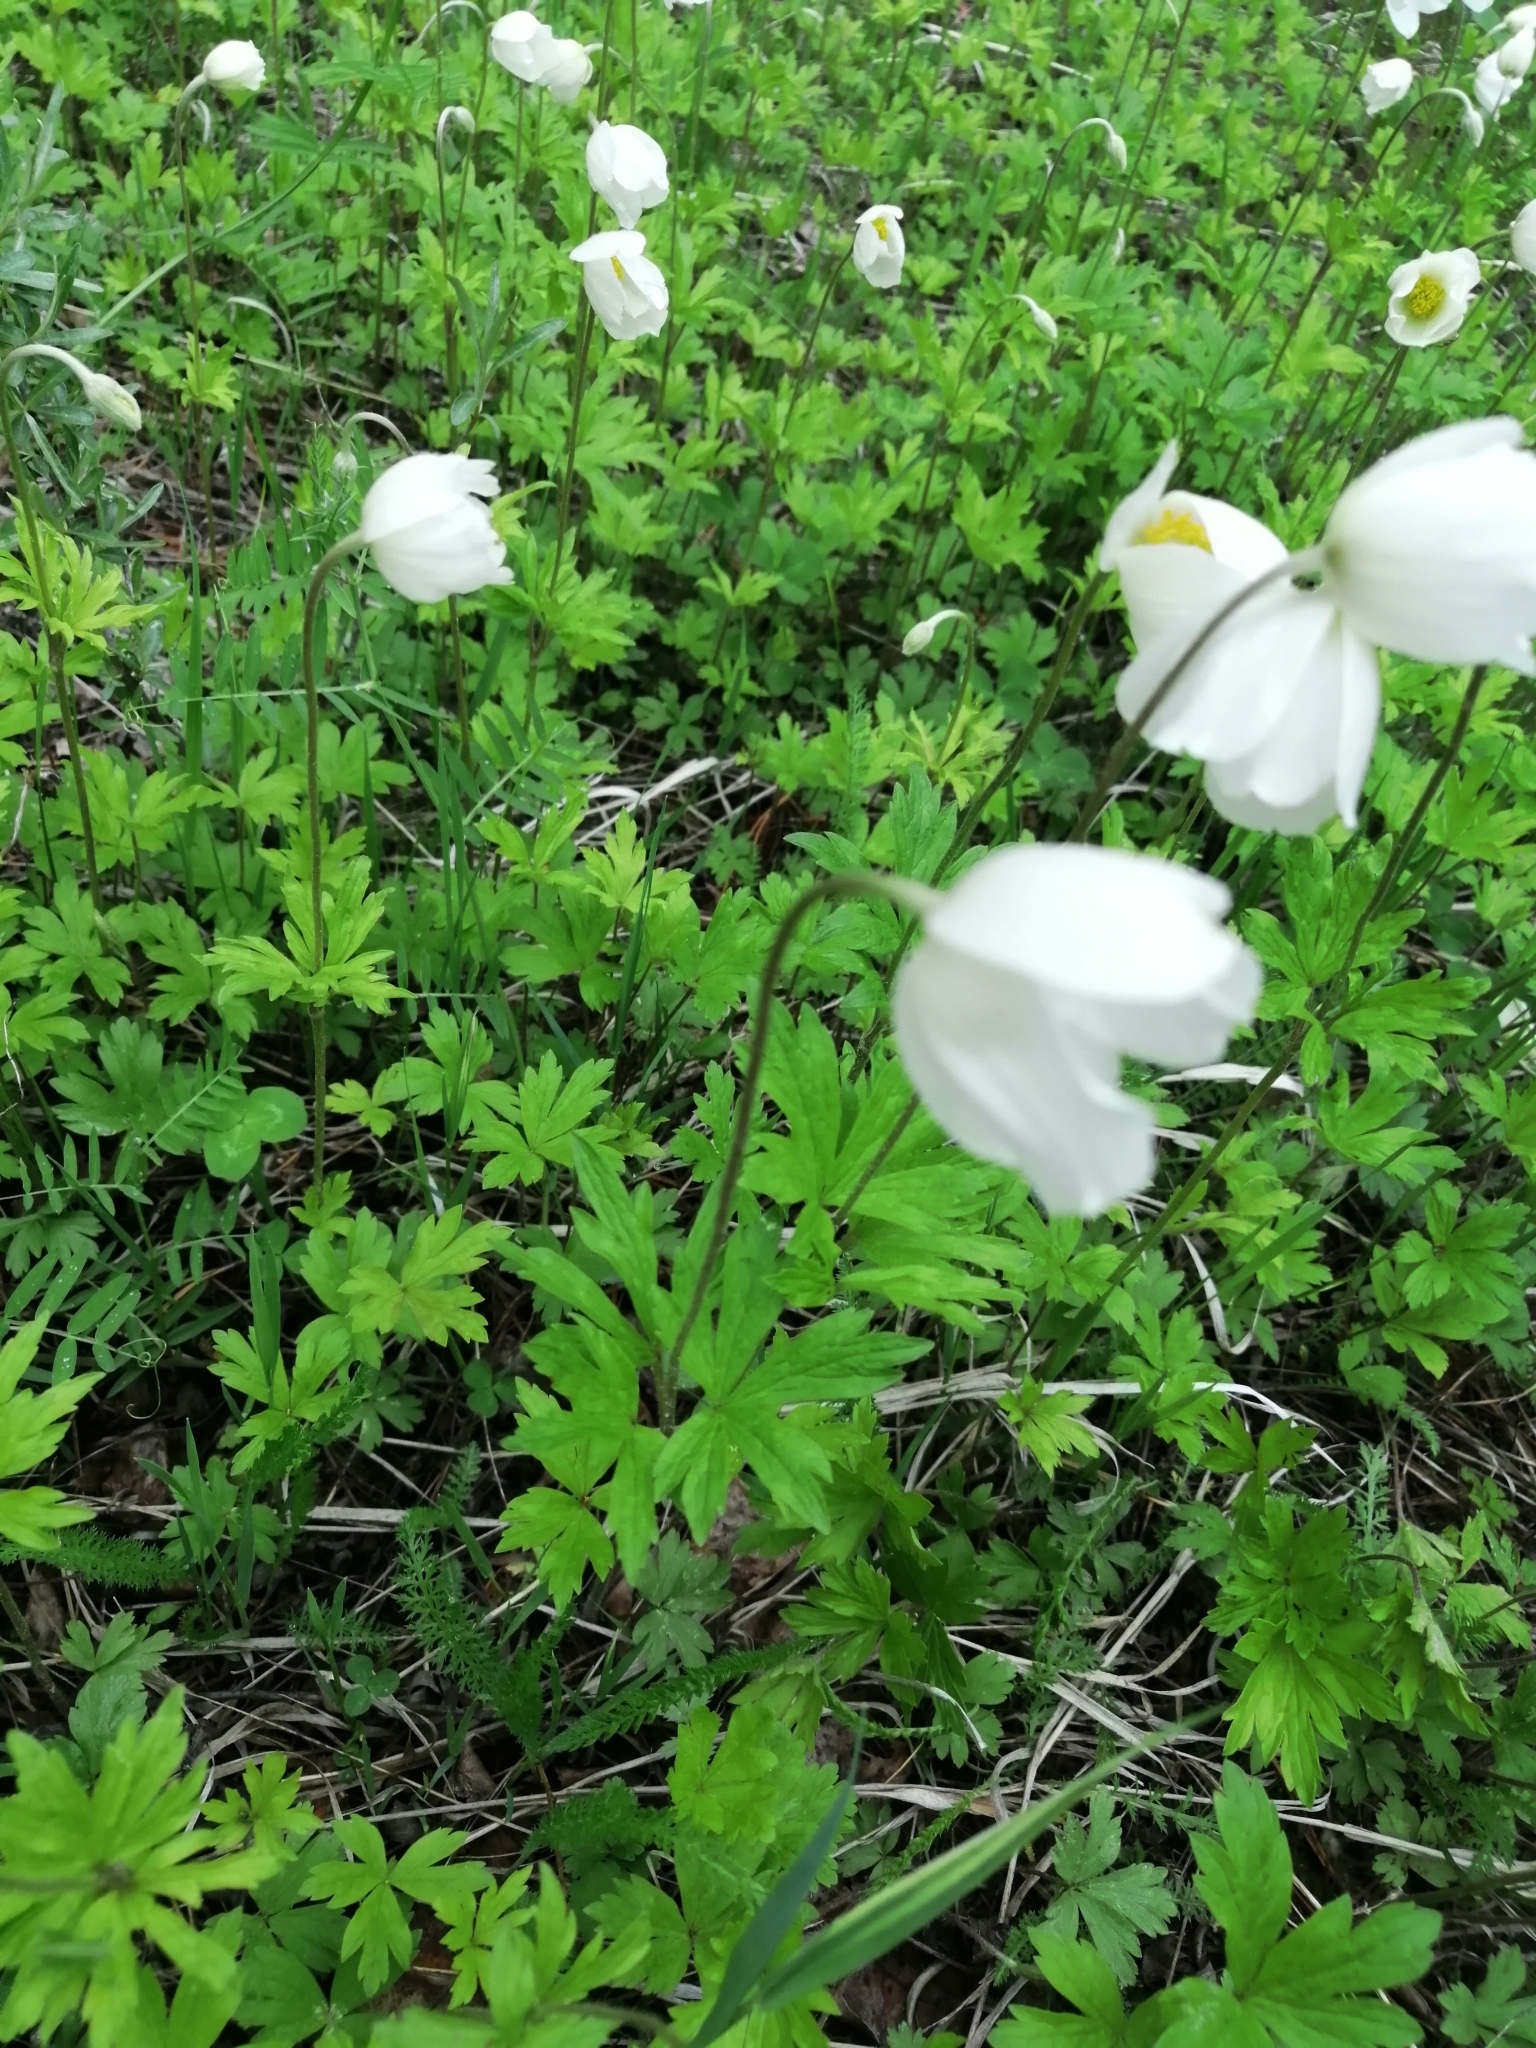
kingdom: Plantae
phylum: Tracheophyta
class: Magnoliopsida
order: Ranunculales
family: Ranunculaceae
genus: Anemone
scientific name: Anemone sylvestris
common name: Snowdrop anemone
